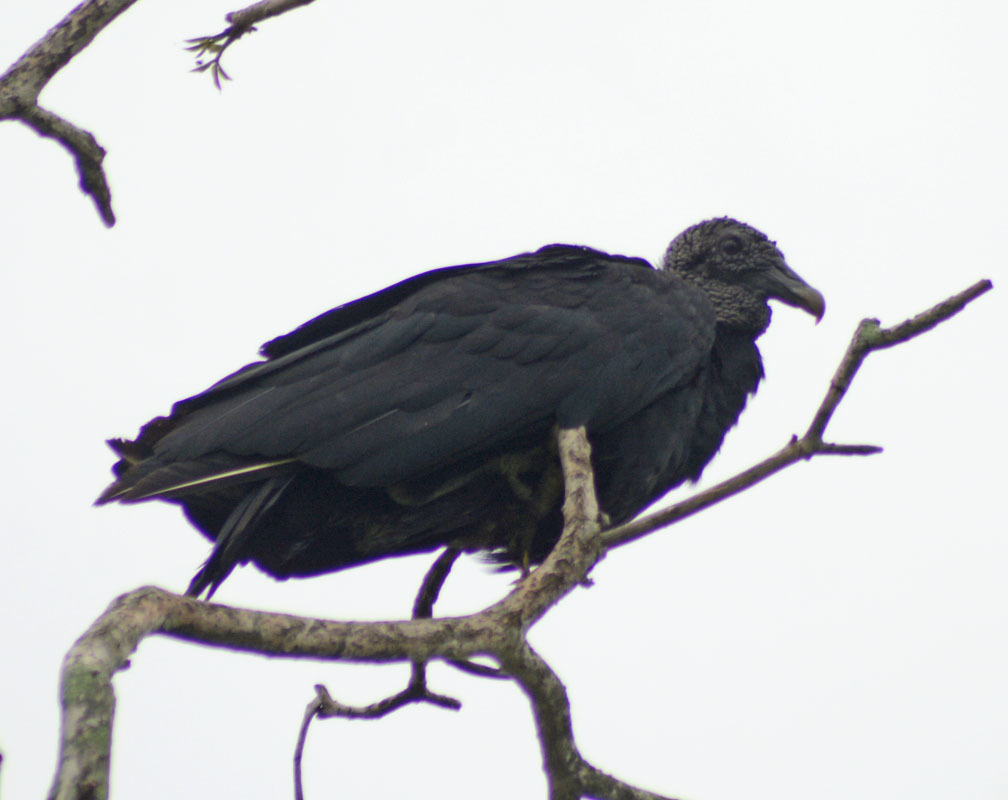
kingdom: Animalia
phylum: Chordata
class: Aves
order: Accipitriformes
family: Cathartidae
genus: Coragyps
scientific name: Coragyps atratus
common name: Black vulture
